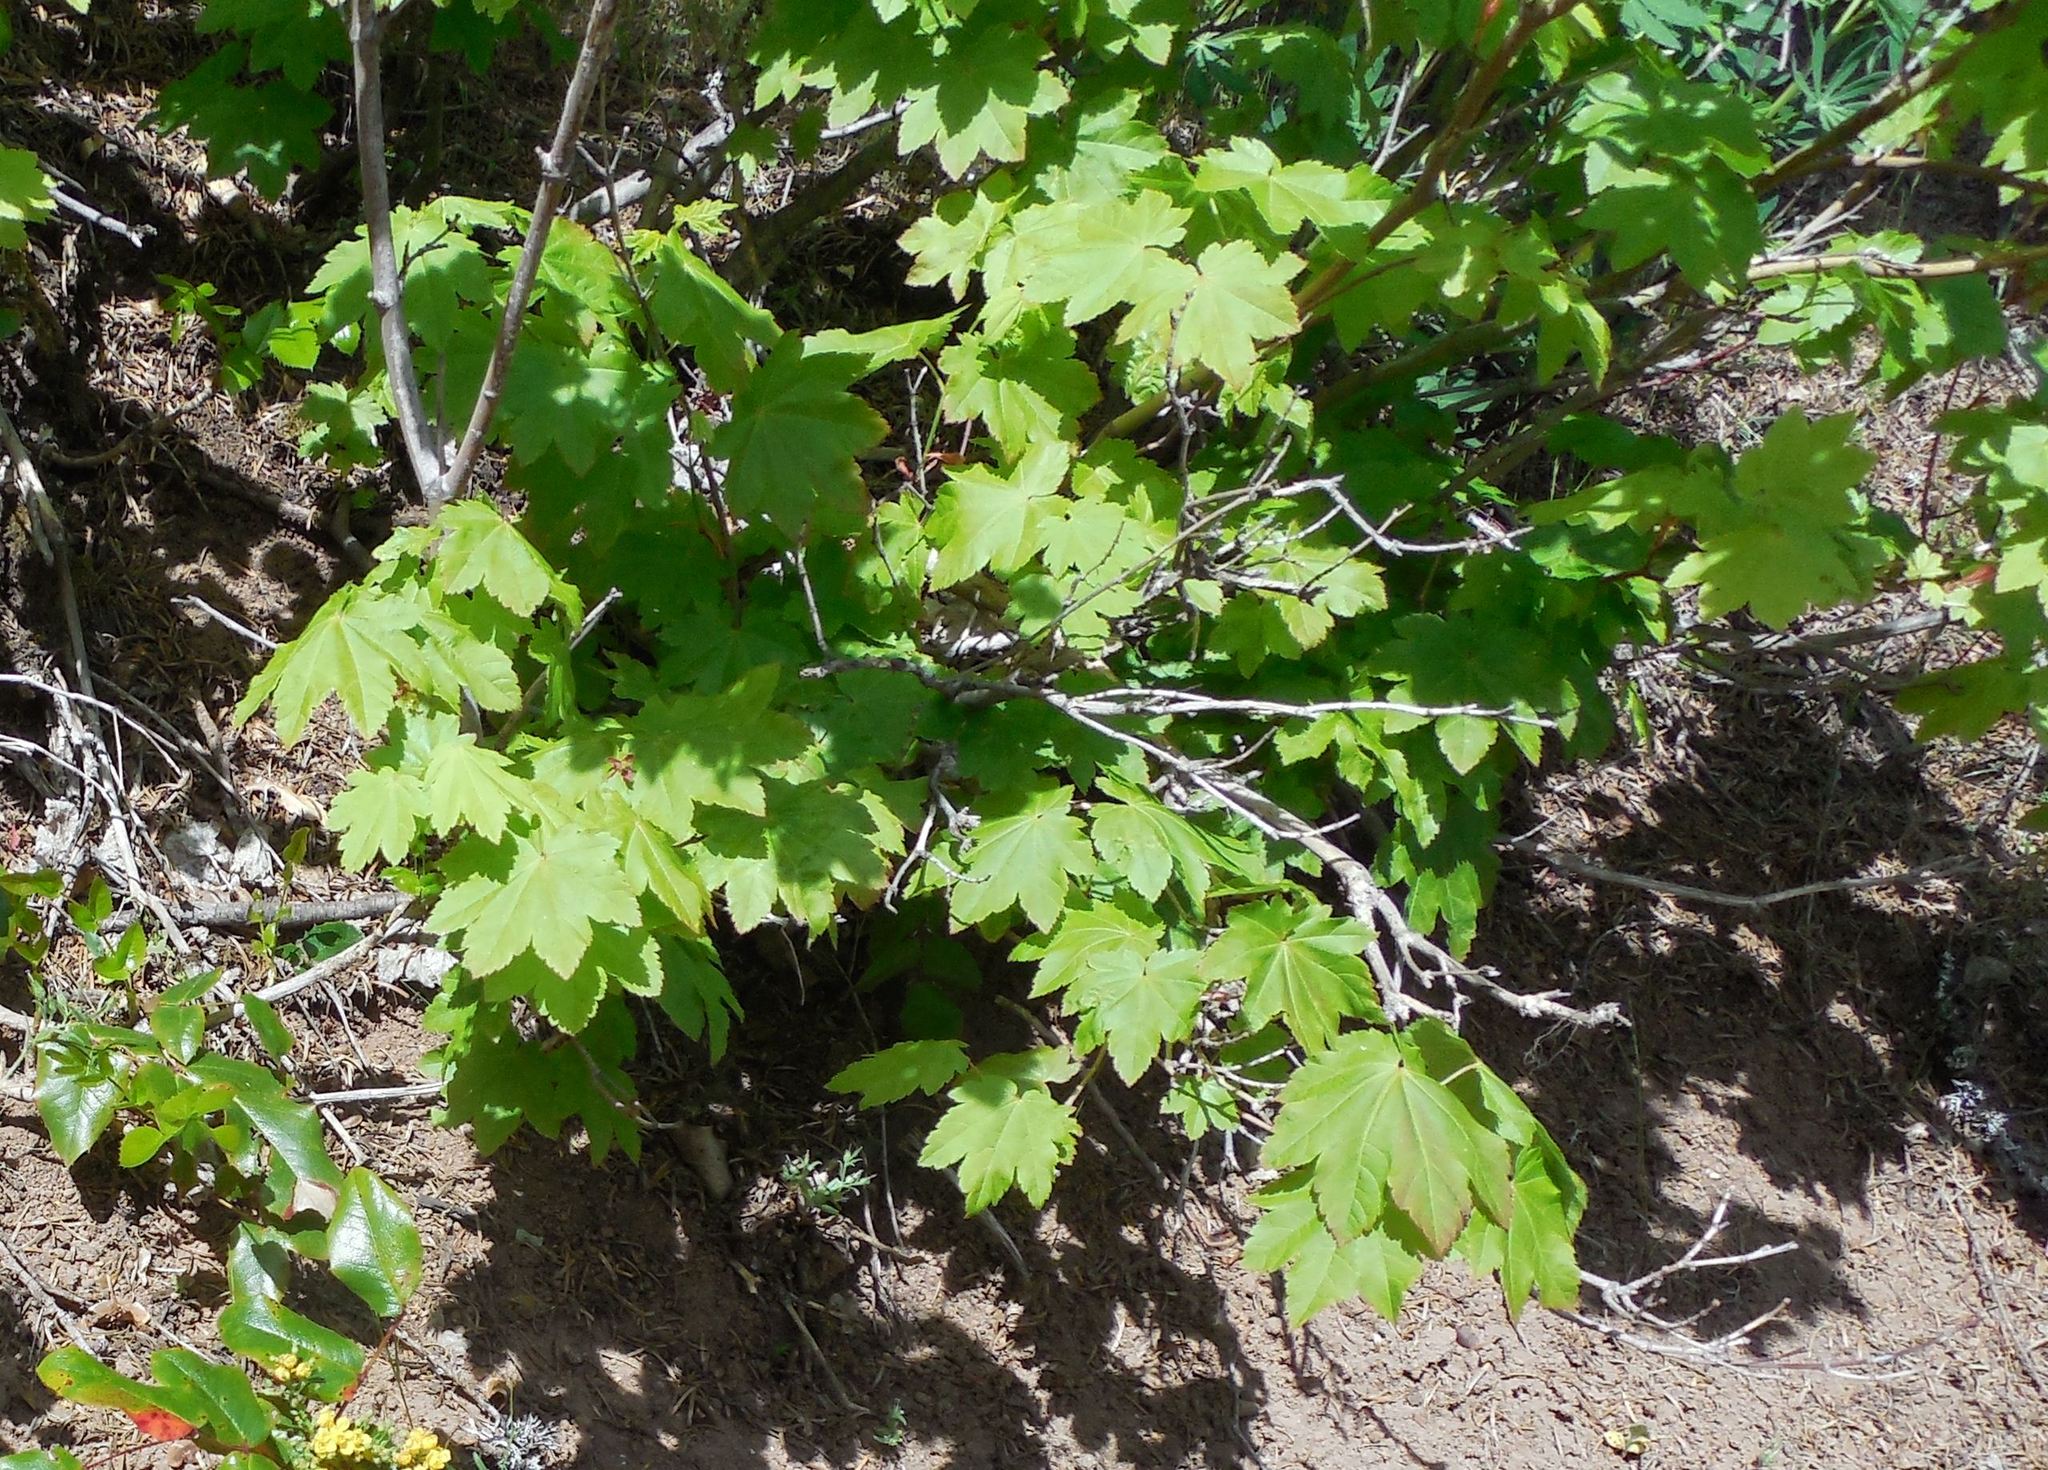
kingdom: Plantae
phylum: Tracheophyta
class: Magnoliopsida
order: Sapindales
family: Sapindaceae
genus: Acer
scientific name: Acer circinatum
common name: Vine maple
